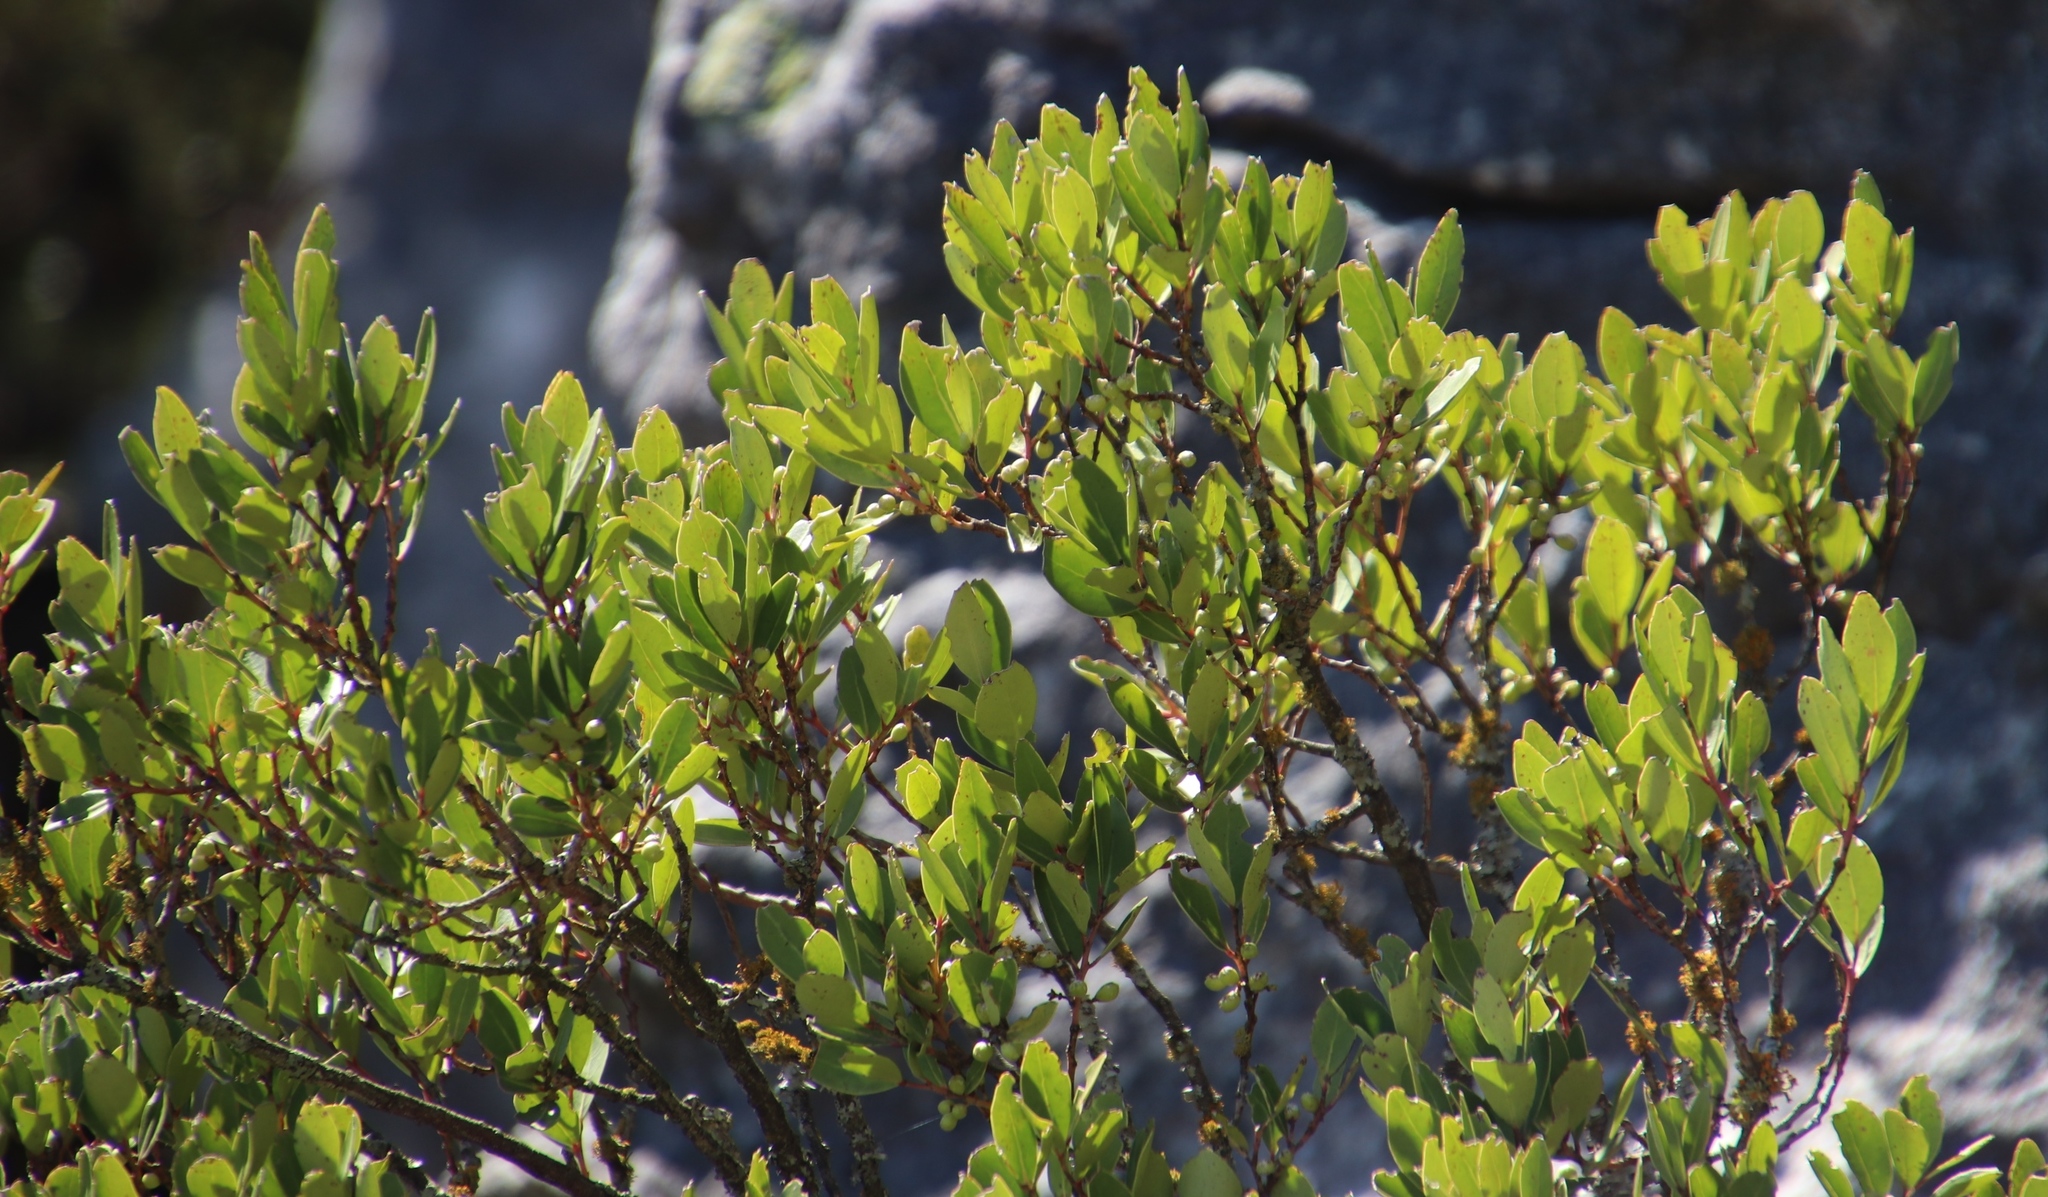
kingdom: Plantae
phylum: Tracheophyta
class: Magnoliopsida
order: Celastrales
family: Celastraceae
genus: Gymnosporia
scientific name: Gymnosporia laurina
